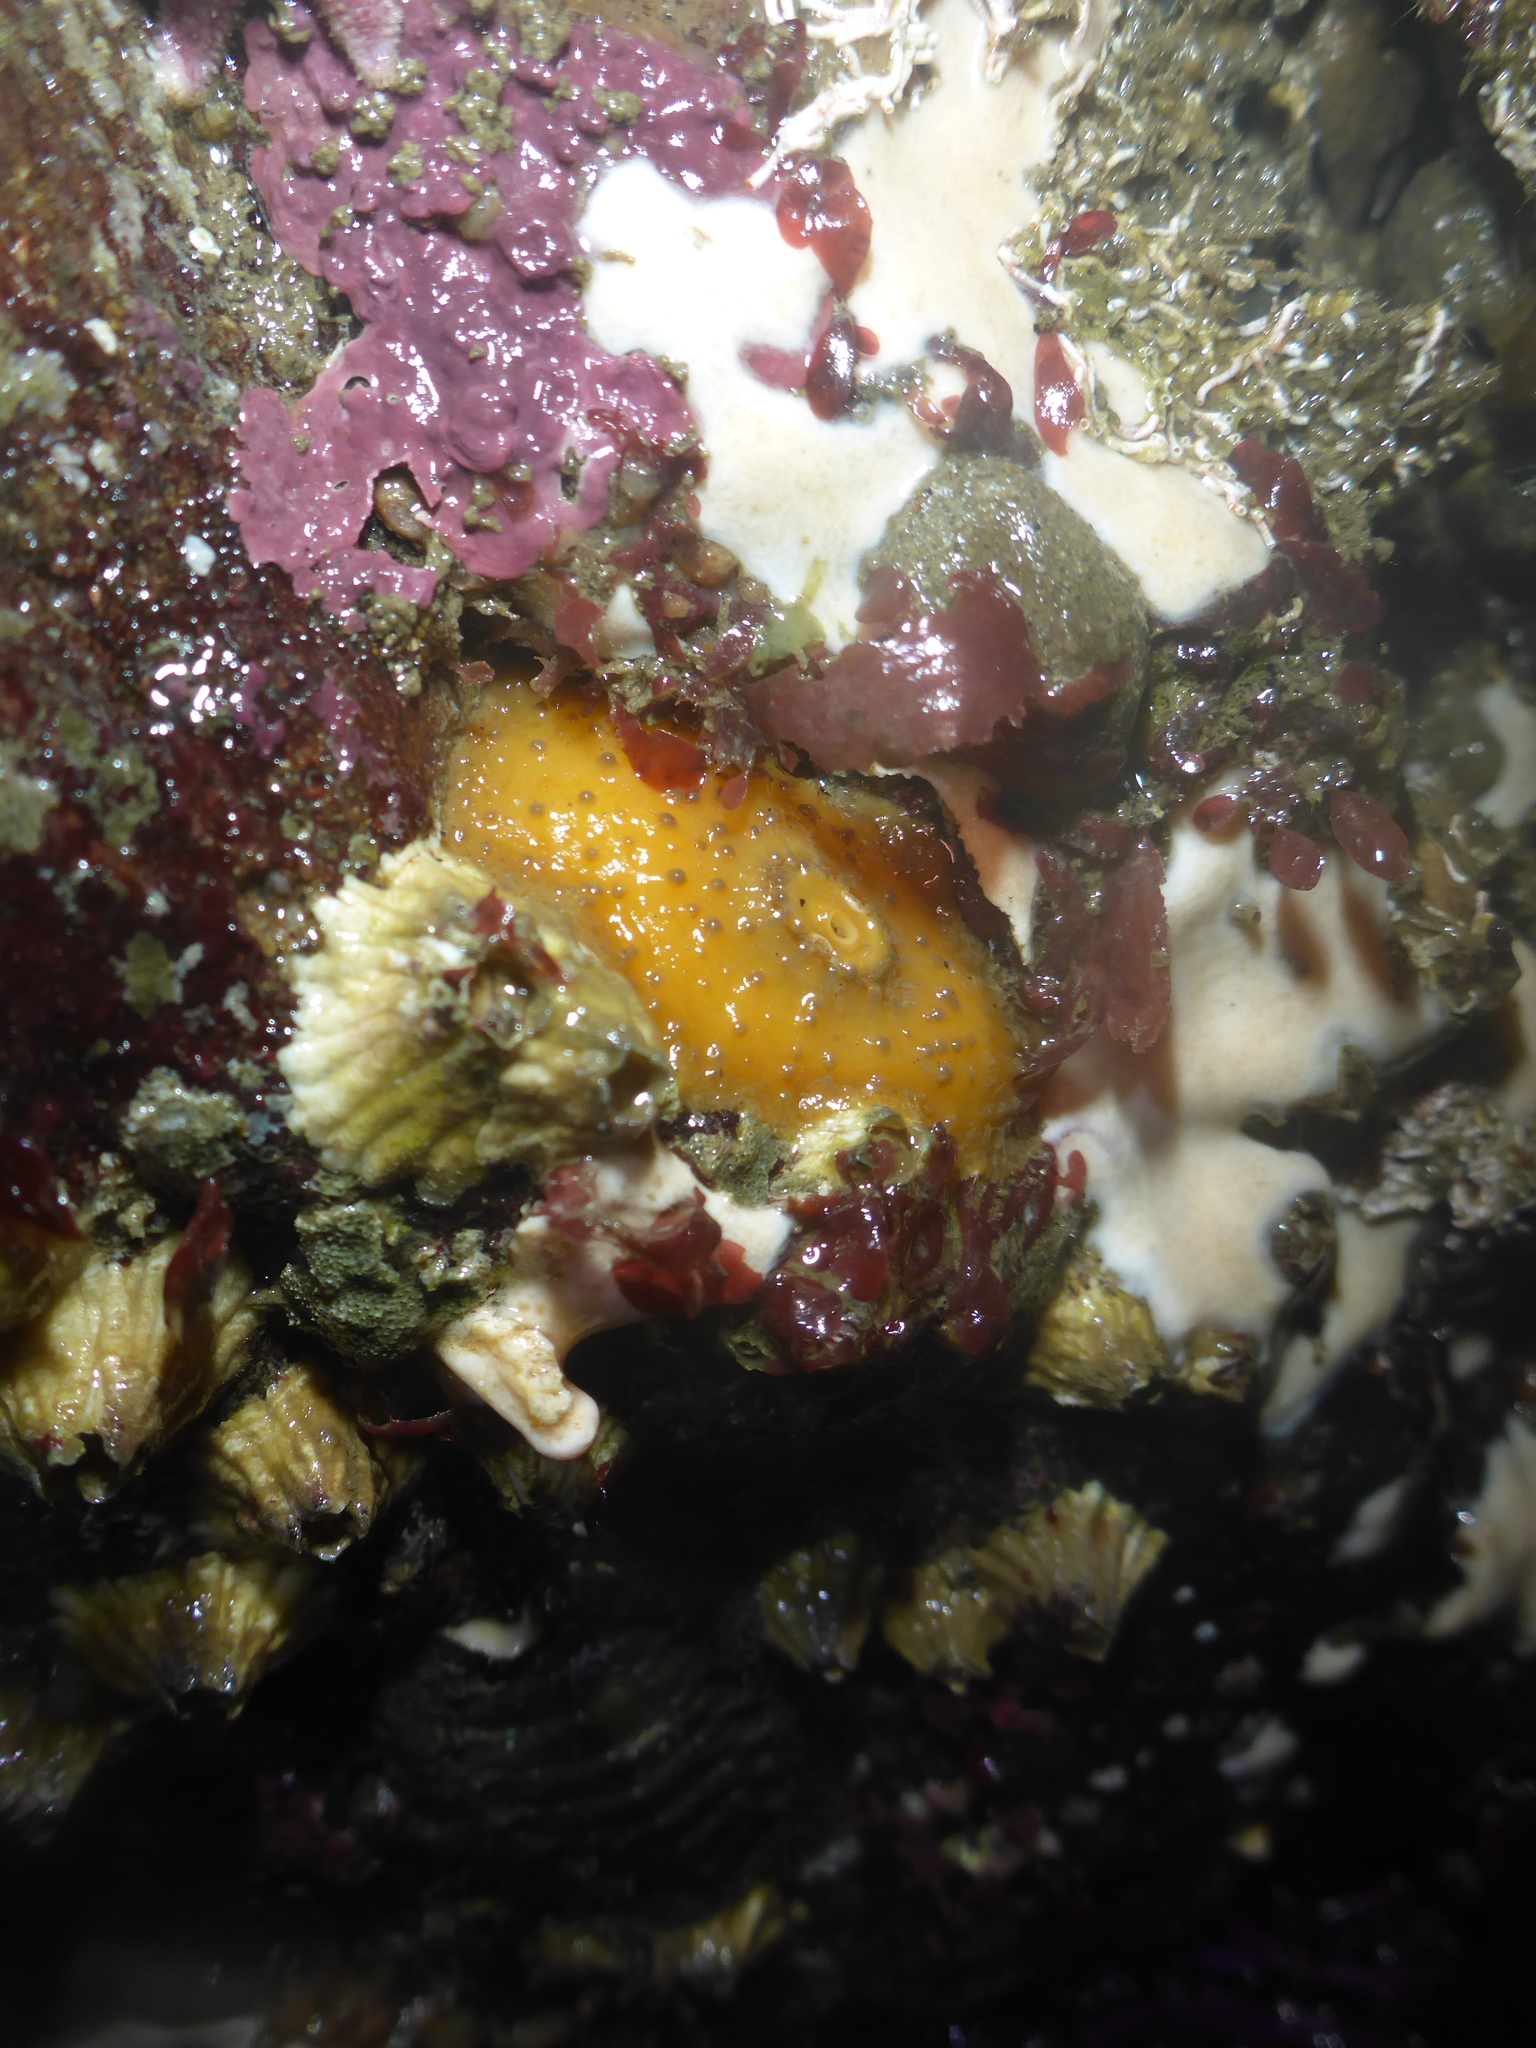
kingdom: Animalia
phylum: Mollusca
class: Gastropoda
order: Lepetellida
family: Fissurellidae
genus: Fissurellidea
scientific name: Fissurellidea bimaculata
